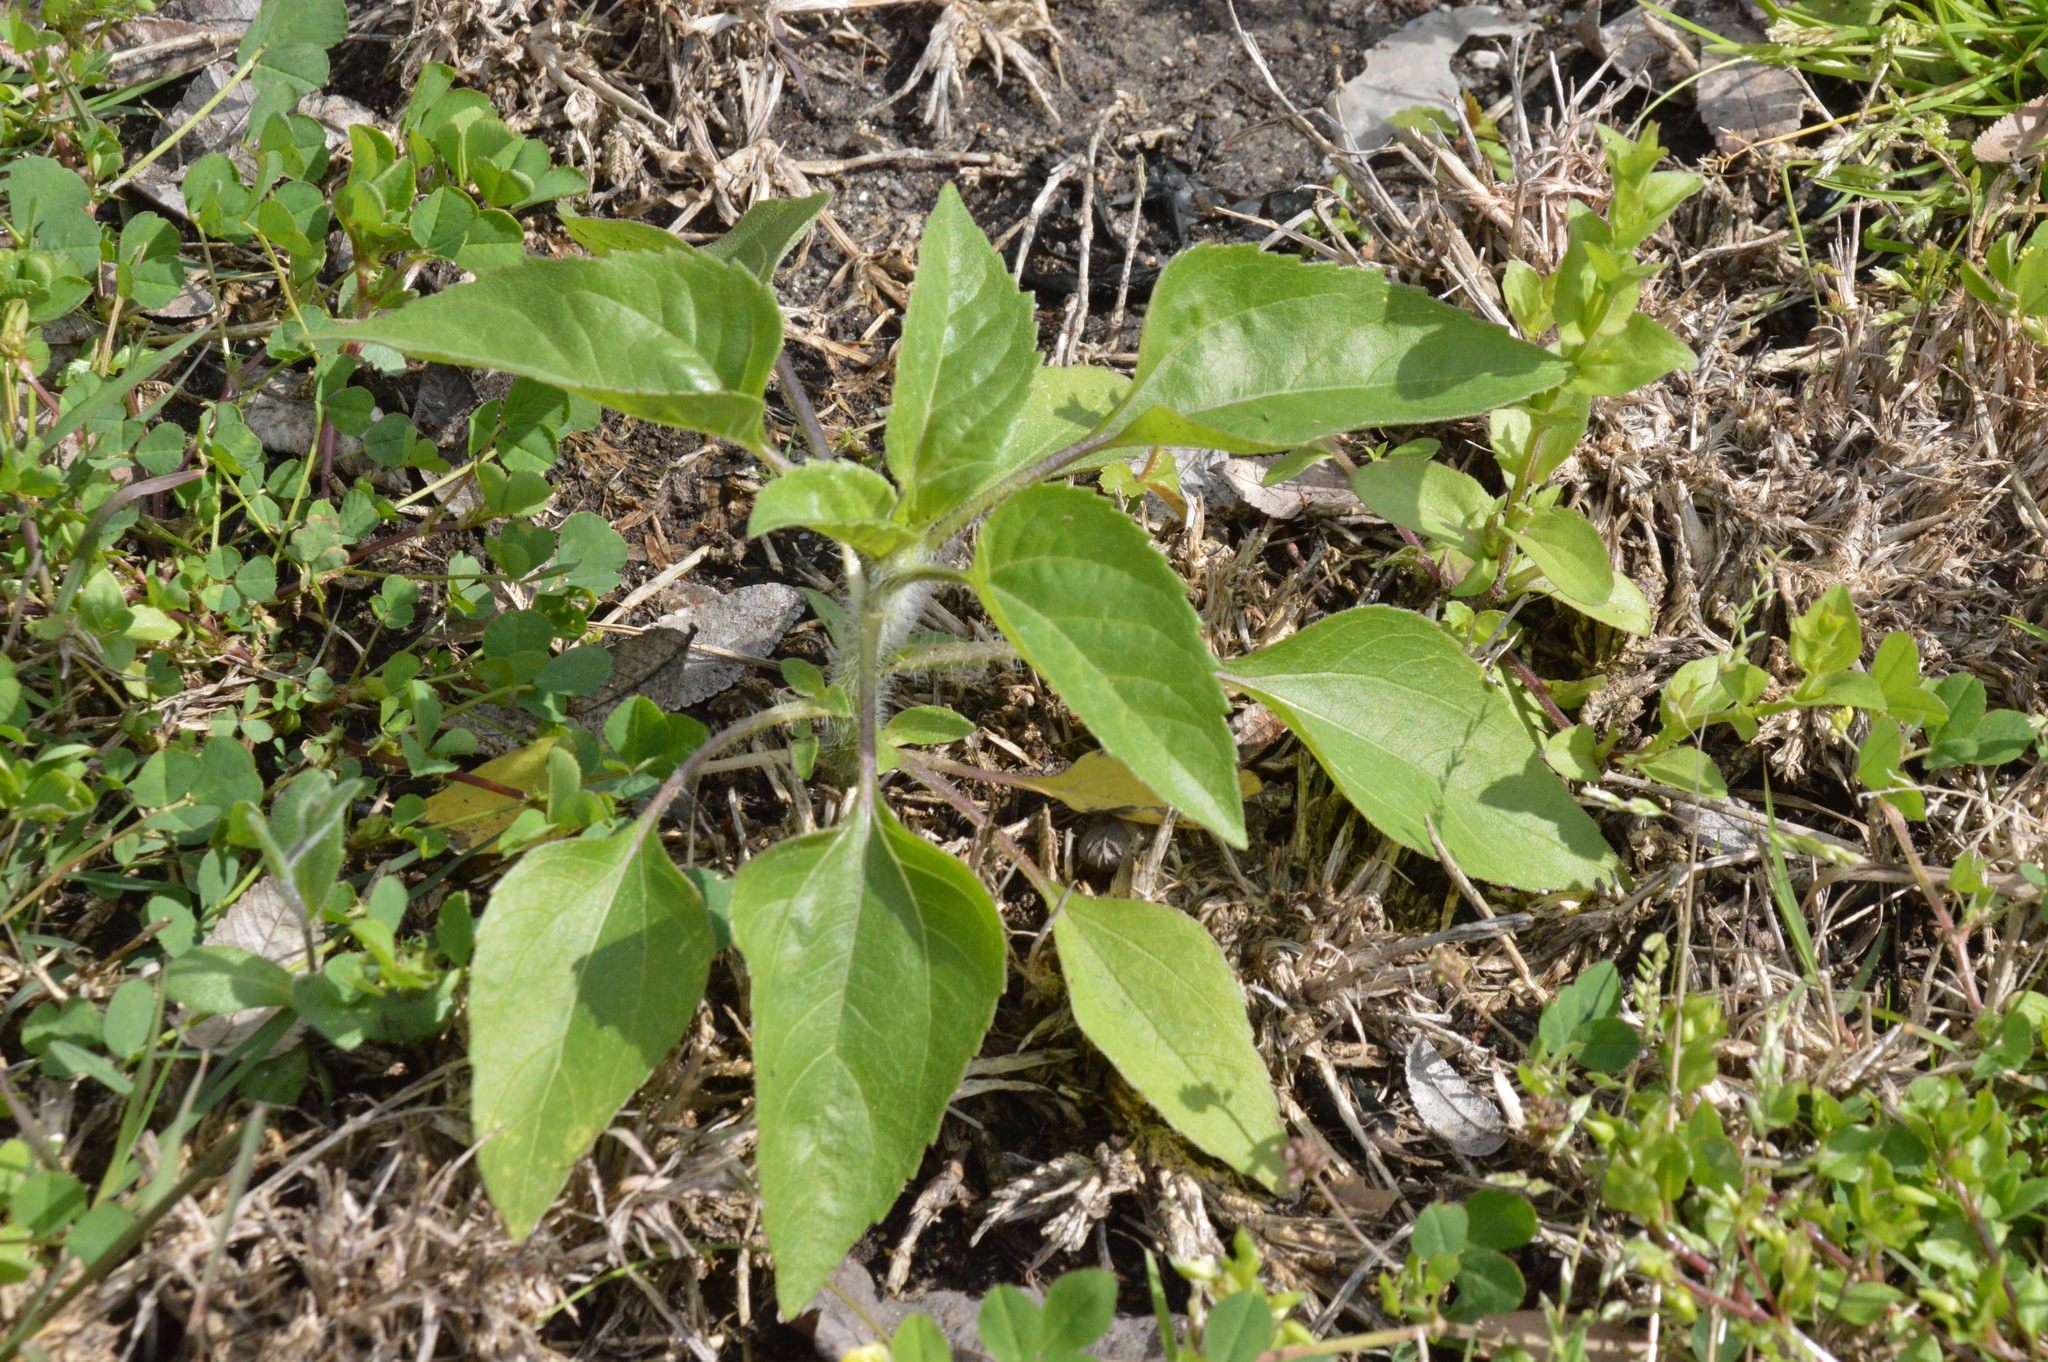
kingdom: Plantae
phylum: Tracheophyta
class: Magnoliopsida
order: Asterales
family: Asteraceae
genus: Helianthus
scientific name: Helianthus annuus
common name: Sunflower
